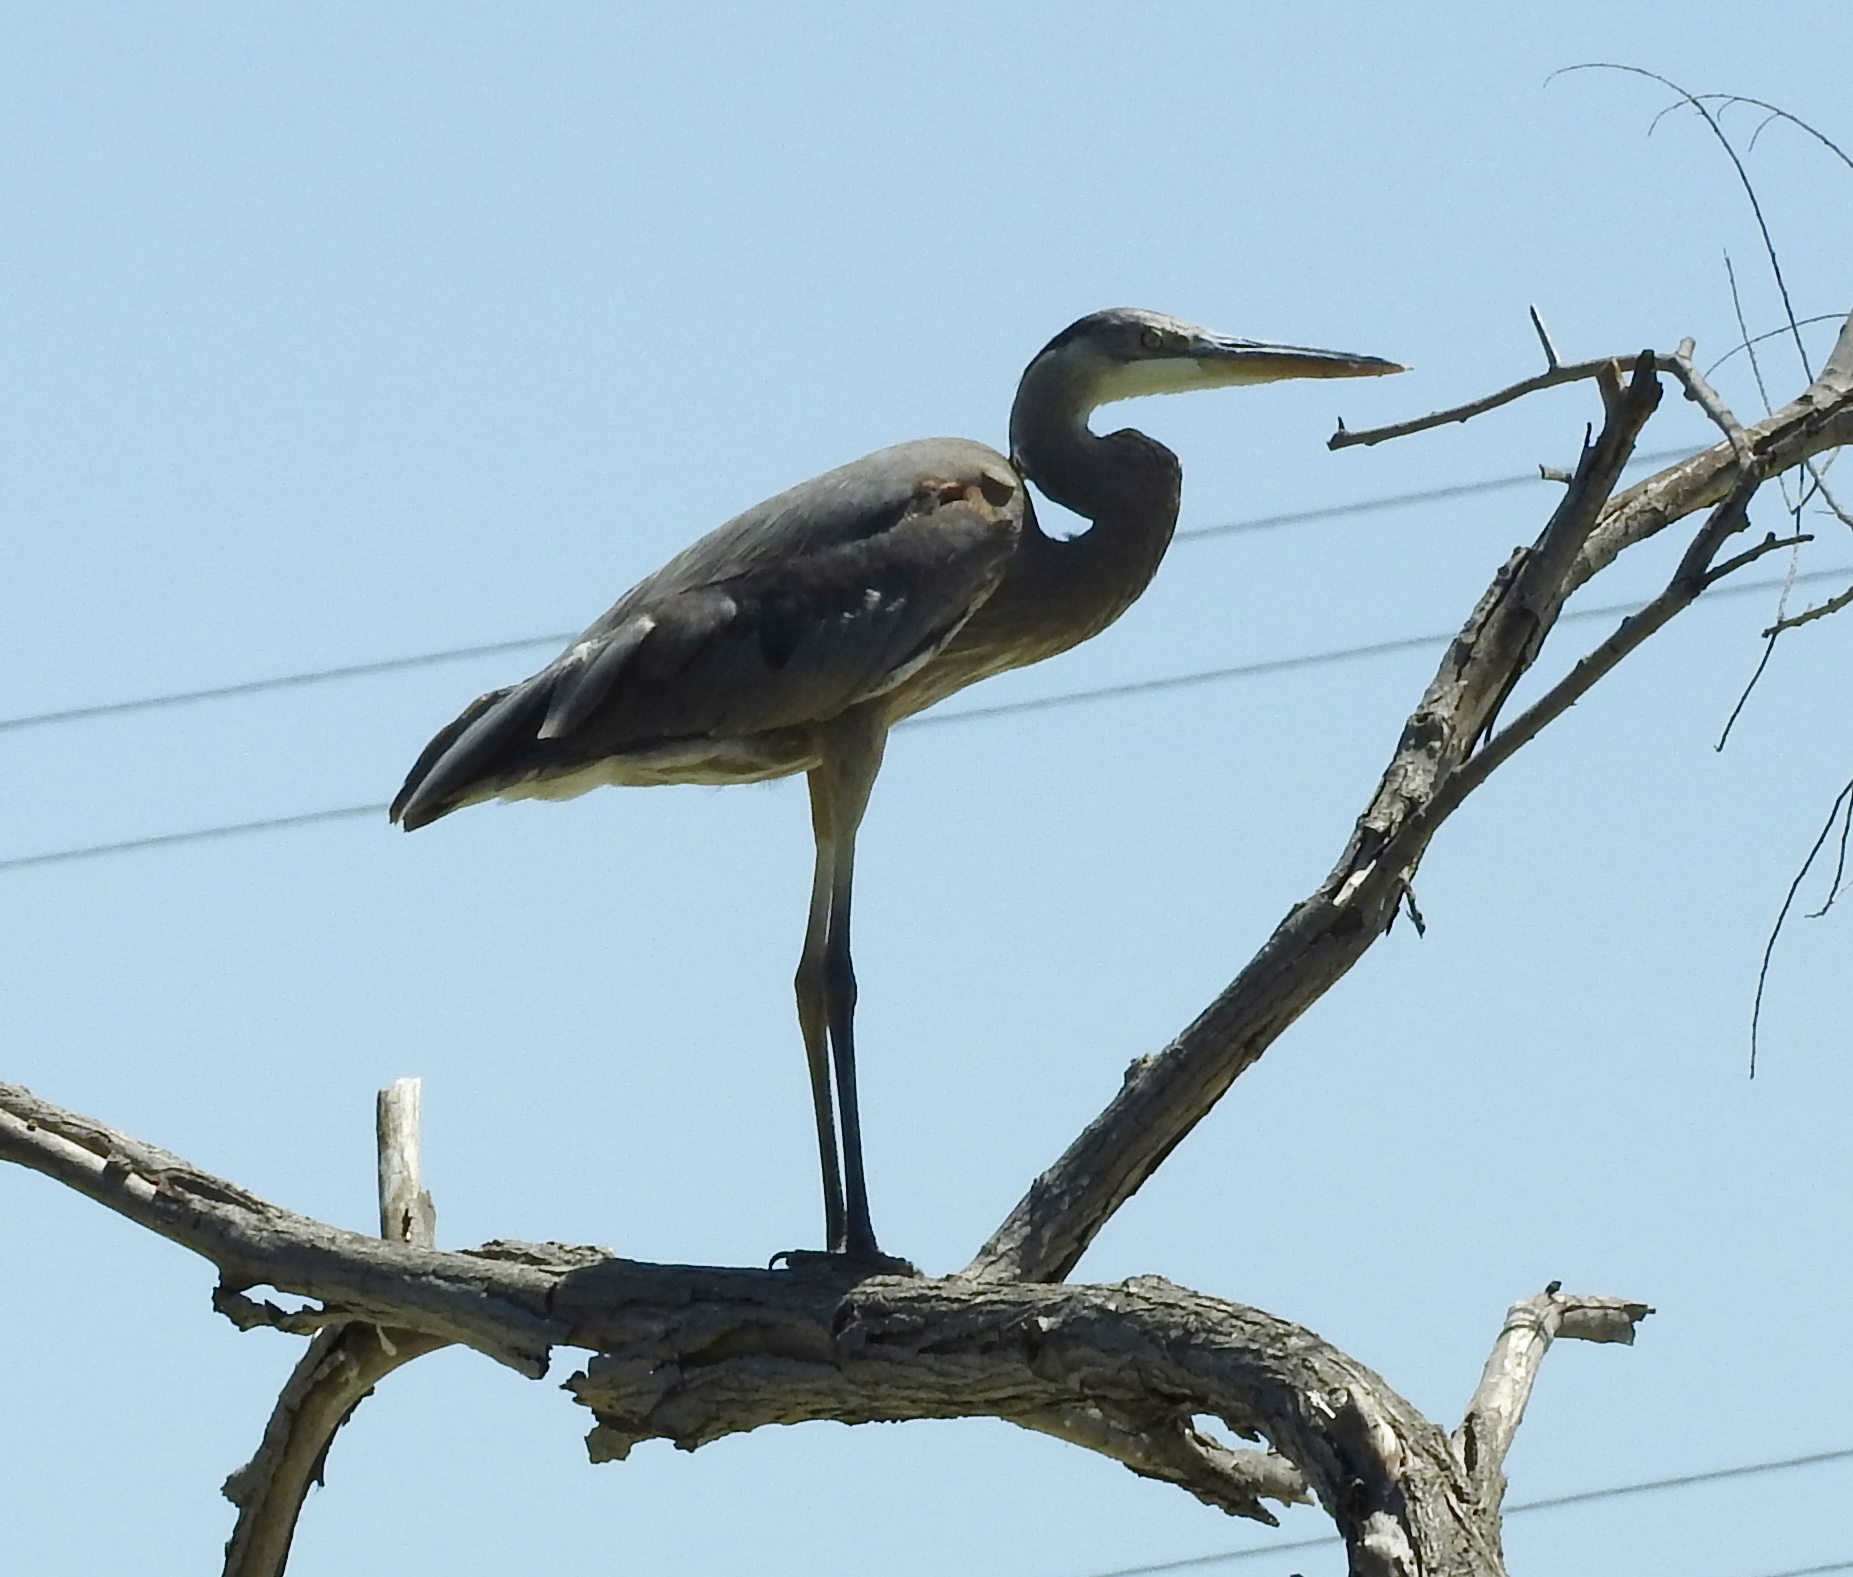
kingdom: Animalia
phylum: Chordata
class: Aves
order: Pelecaniformes
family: Ardeidae
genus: Ardea
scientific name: Ardea herodias
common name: Great blue heron
